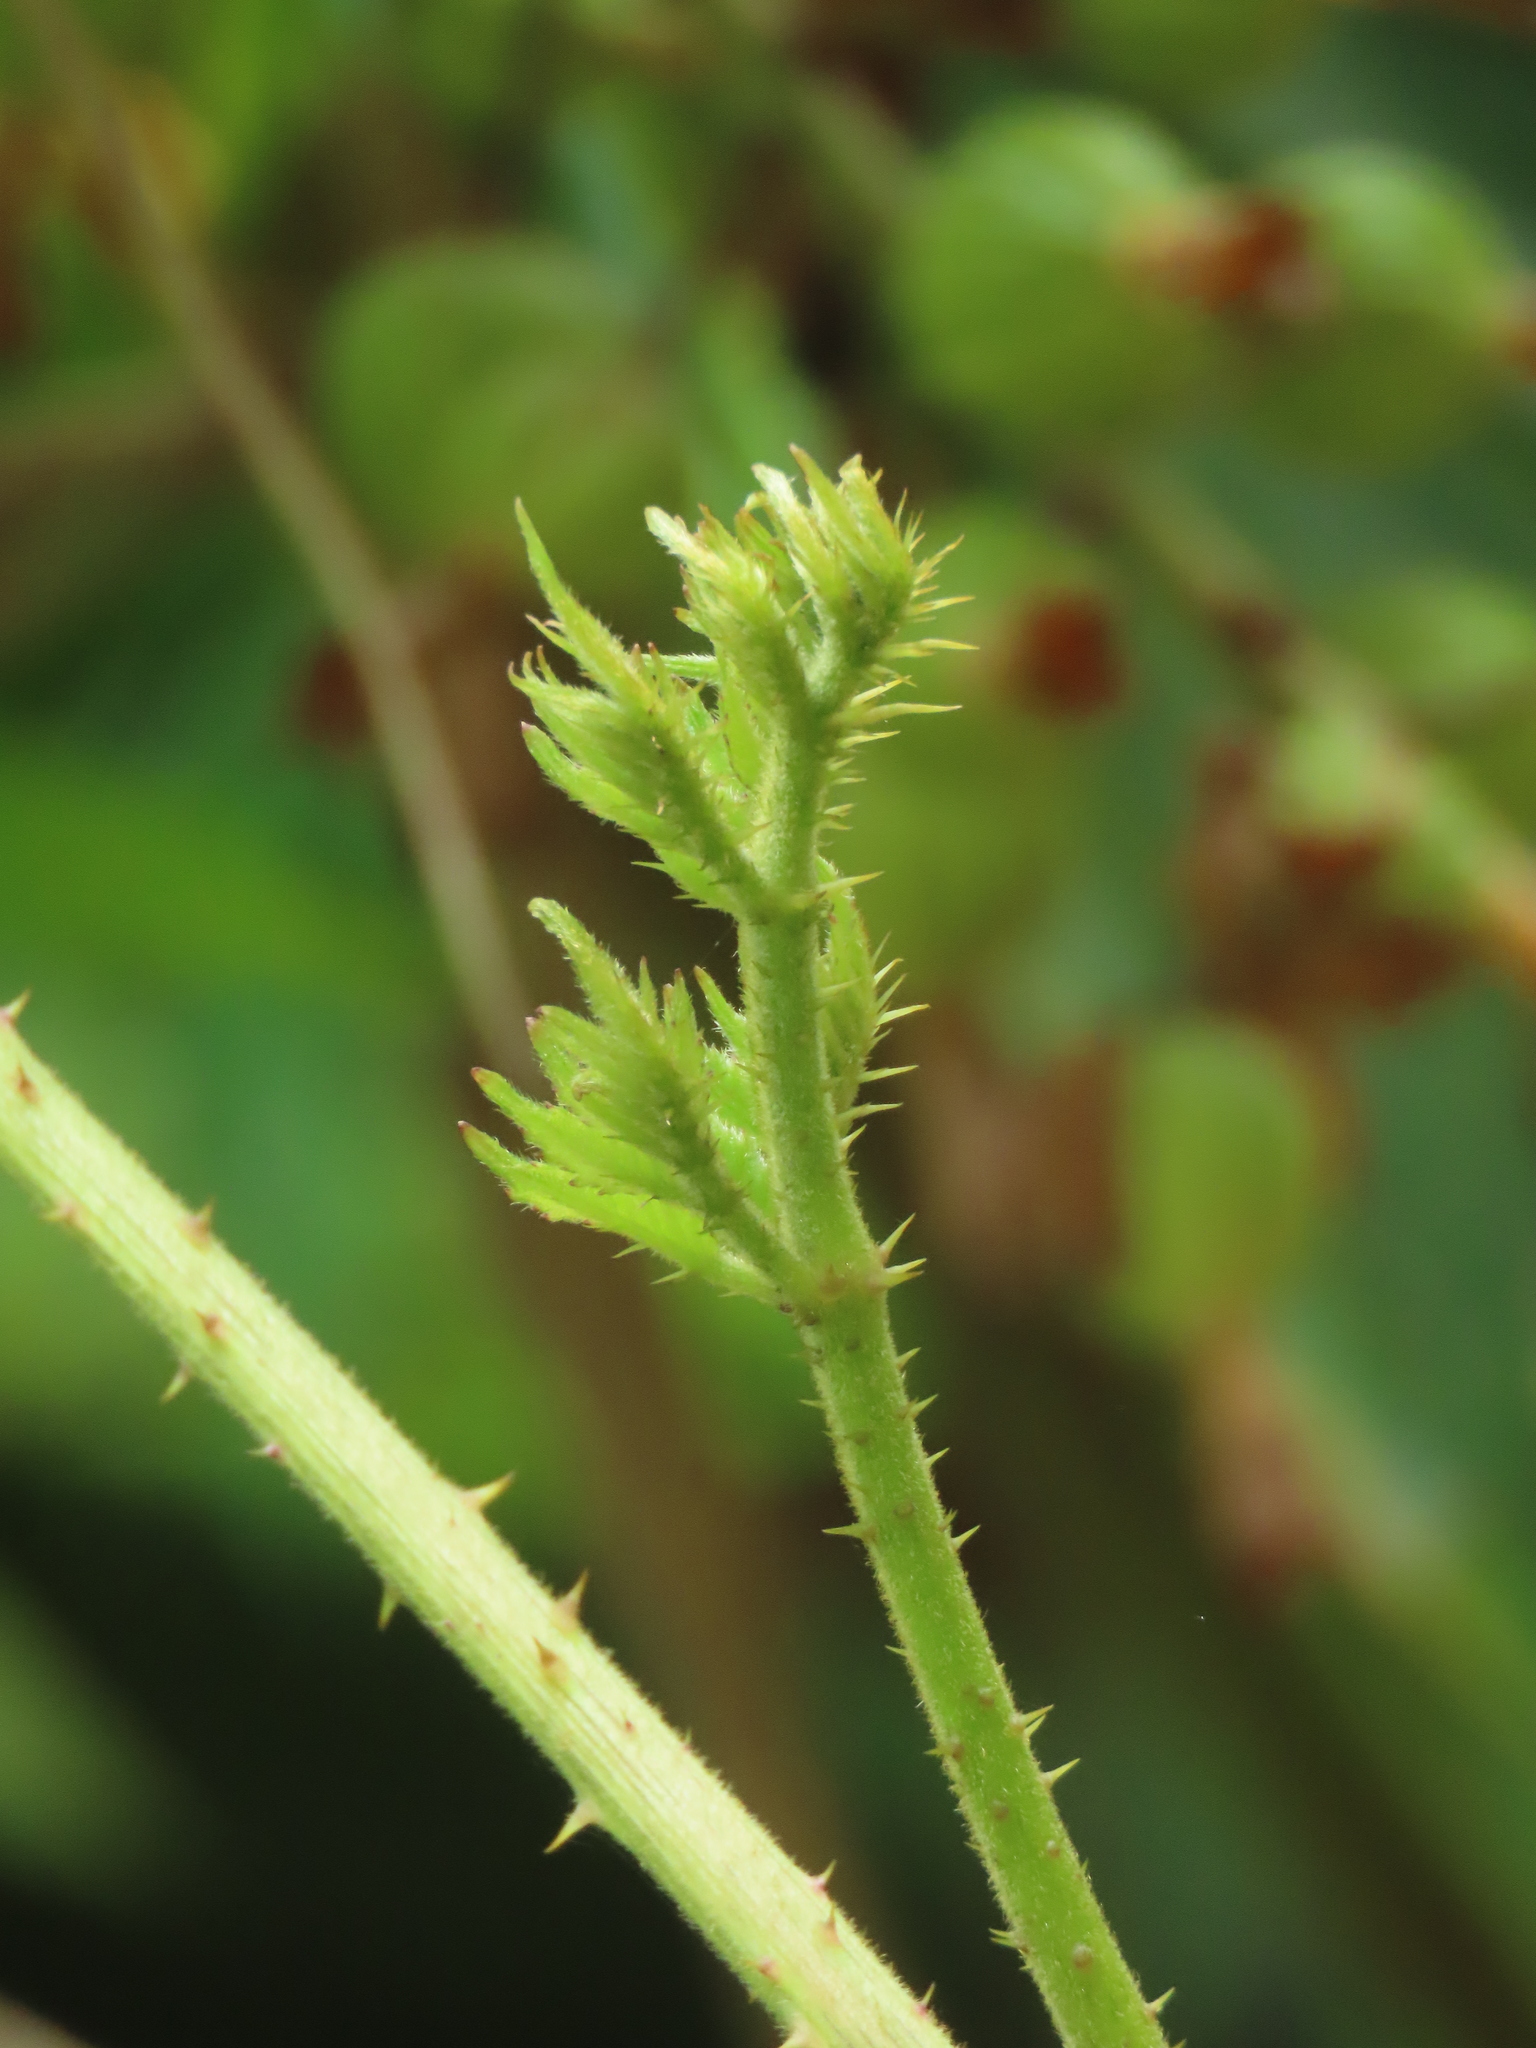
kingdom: Plantae
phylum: Tracheophyta
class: Magnoliopsida
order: Apiales
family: Araliaceae
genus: Aralia
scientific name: Aralia decaisneana
